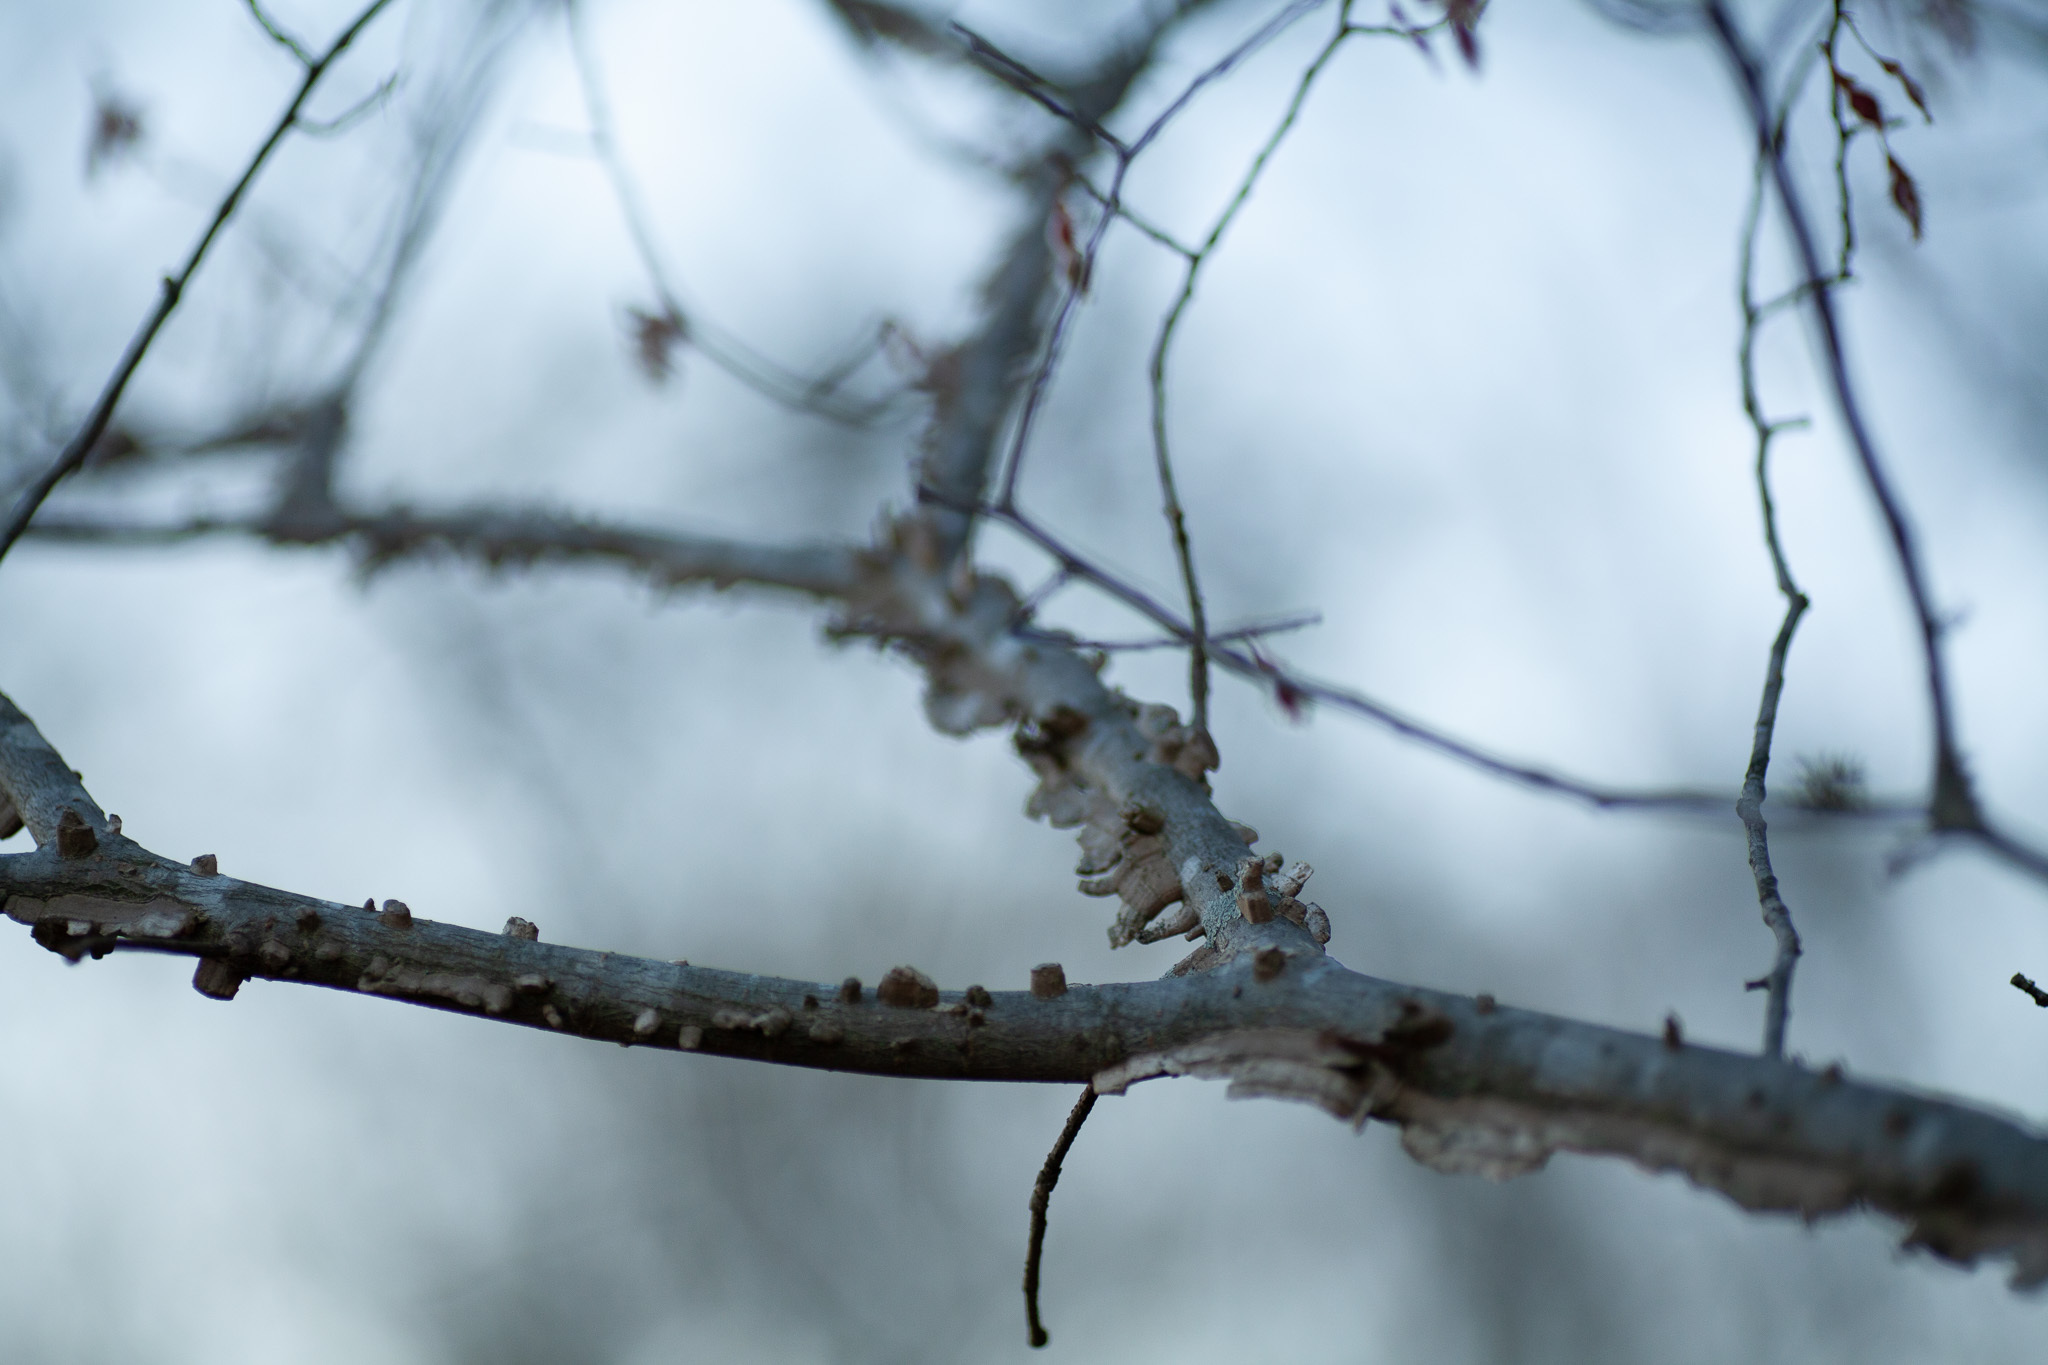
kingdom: Plantae
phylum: Tracheophyta
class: Magnoliopsida
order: Rosales
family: Ulmaceae
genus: Ulmus
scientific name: Ulmus alata
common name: Winged elm
